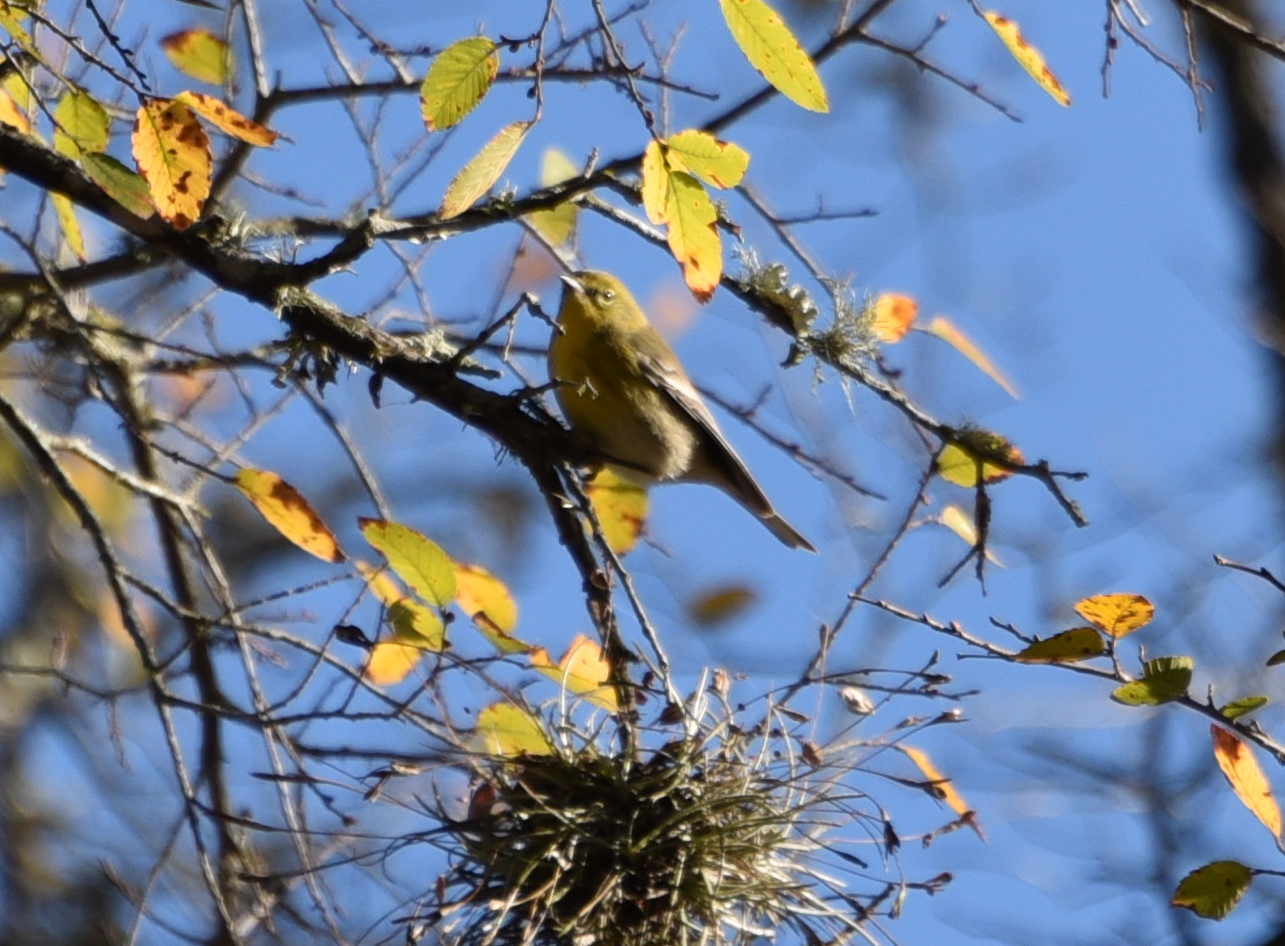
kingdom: Animalia
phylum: Chordata
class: Aves
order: Passeriformes
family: Parulidae
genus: Setophaga
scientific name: Setophaga pinus
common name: Pine warbler
